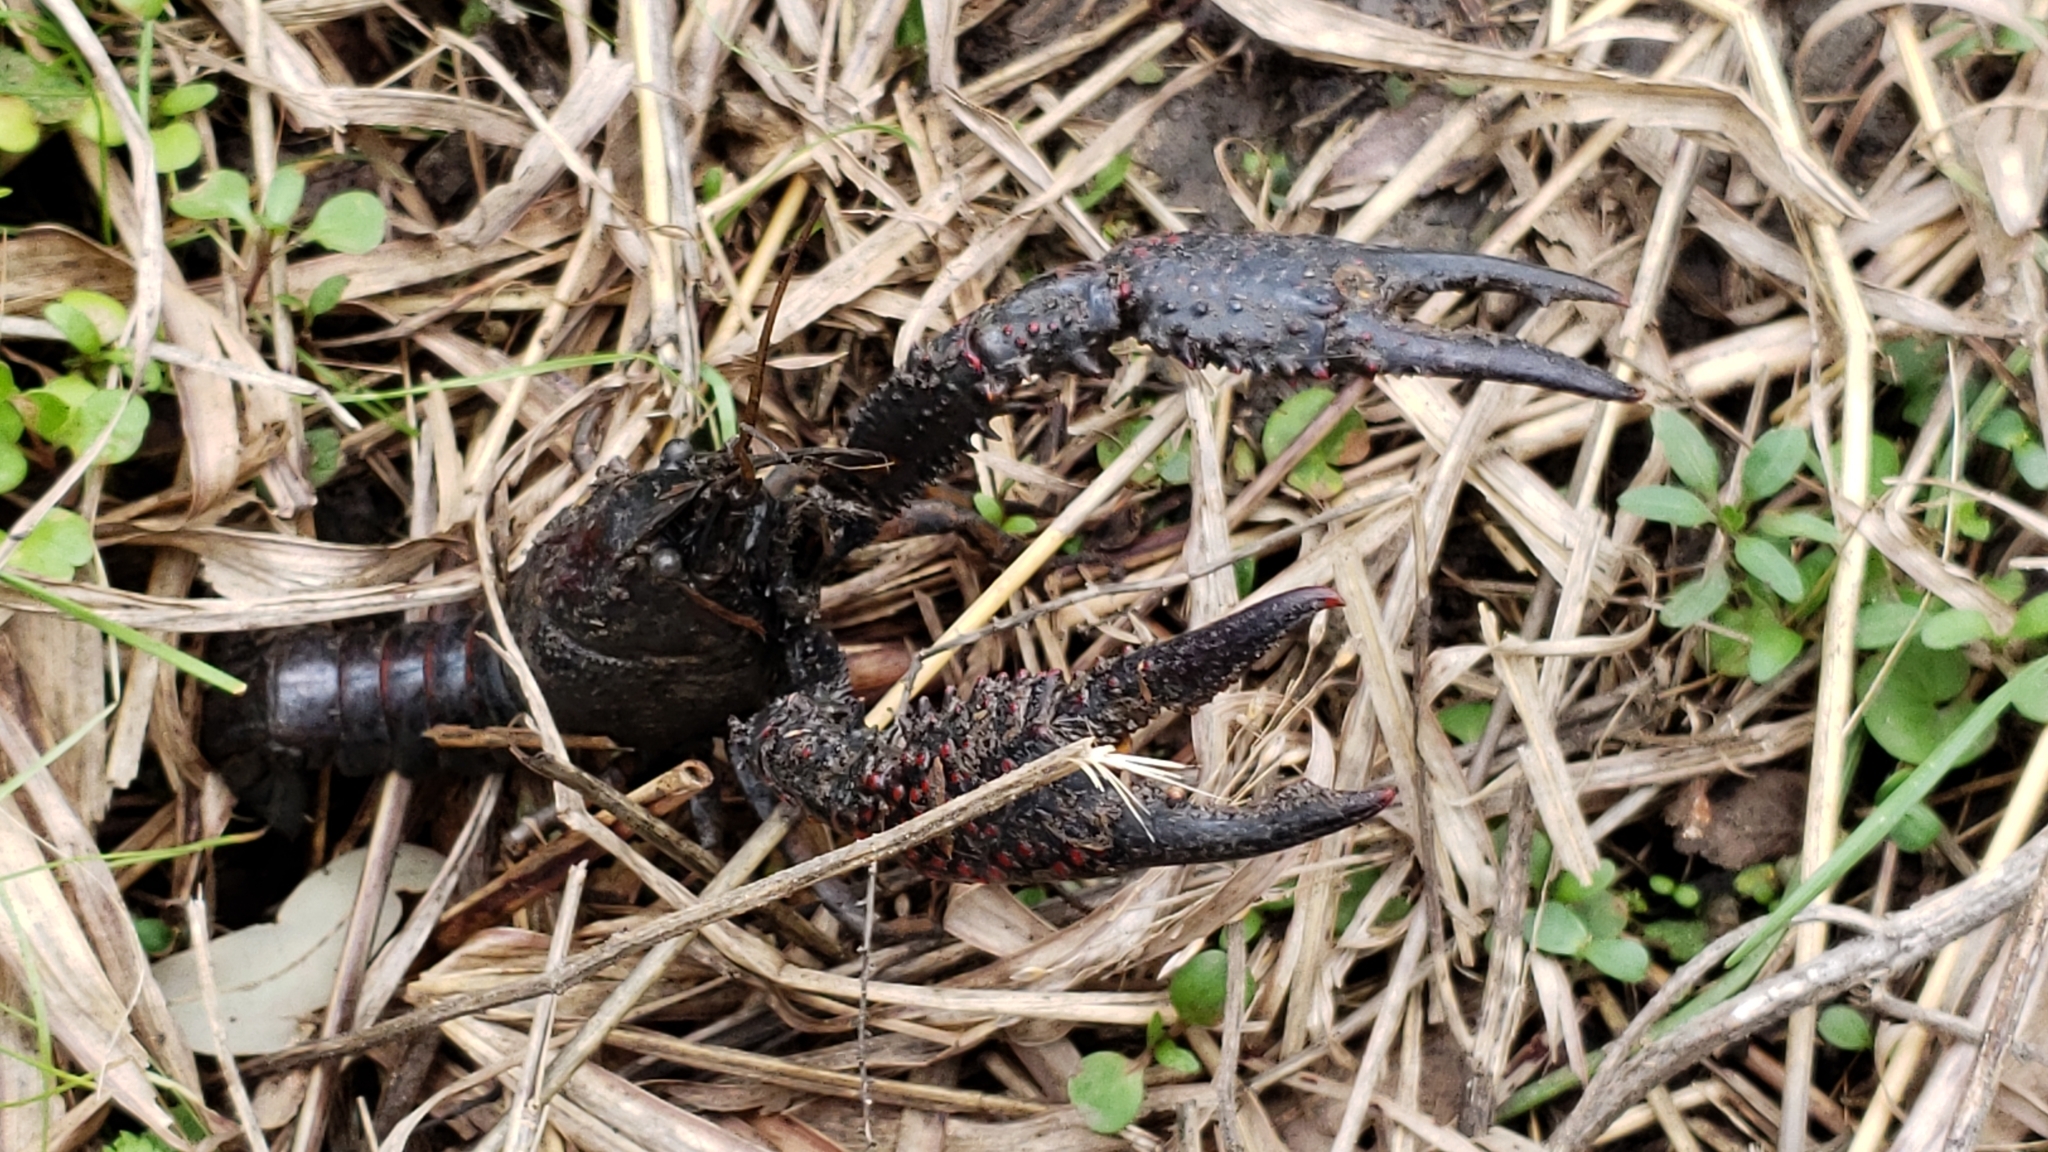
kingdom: Animalia
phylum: Arthropoda
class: Malacostraca
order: Decapoda
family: Cambaridae
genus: Procambarus
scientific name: Procambarus clarkii
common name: Red swamp crayfish
